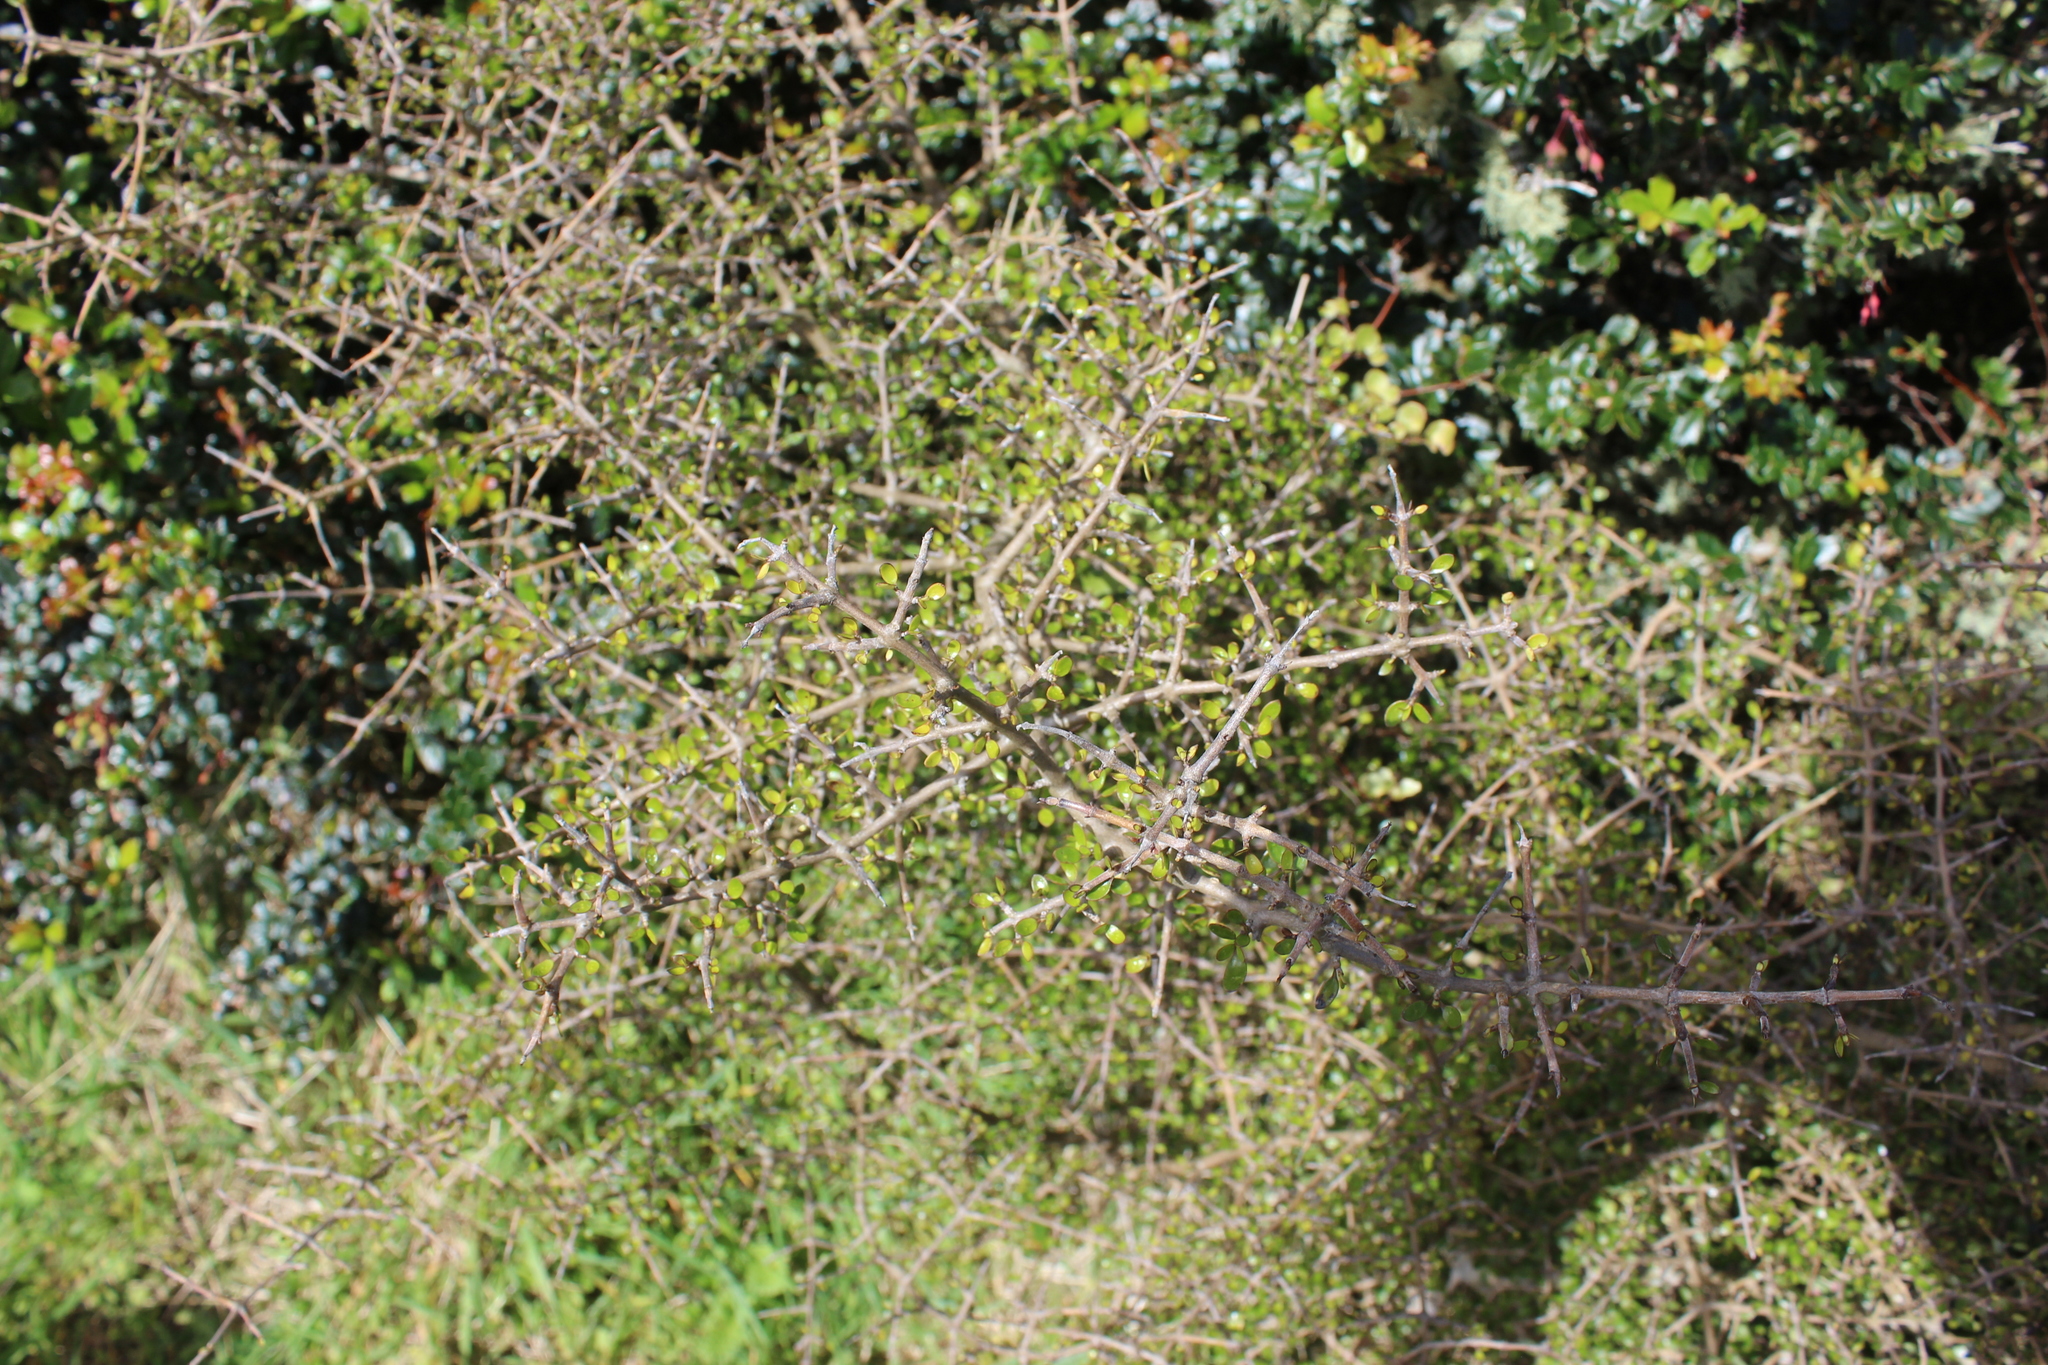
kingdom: Plantae
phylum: Tracheophyta
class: Magnoliopsida
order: Gentianales
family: Rubiaceae
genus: Coprosma
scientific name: Coprosma propinqua
